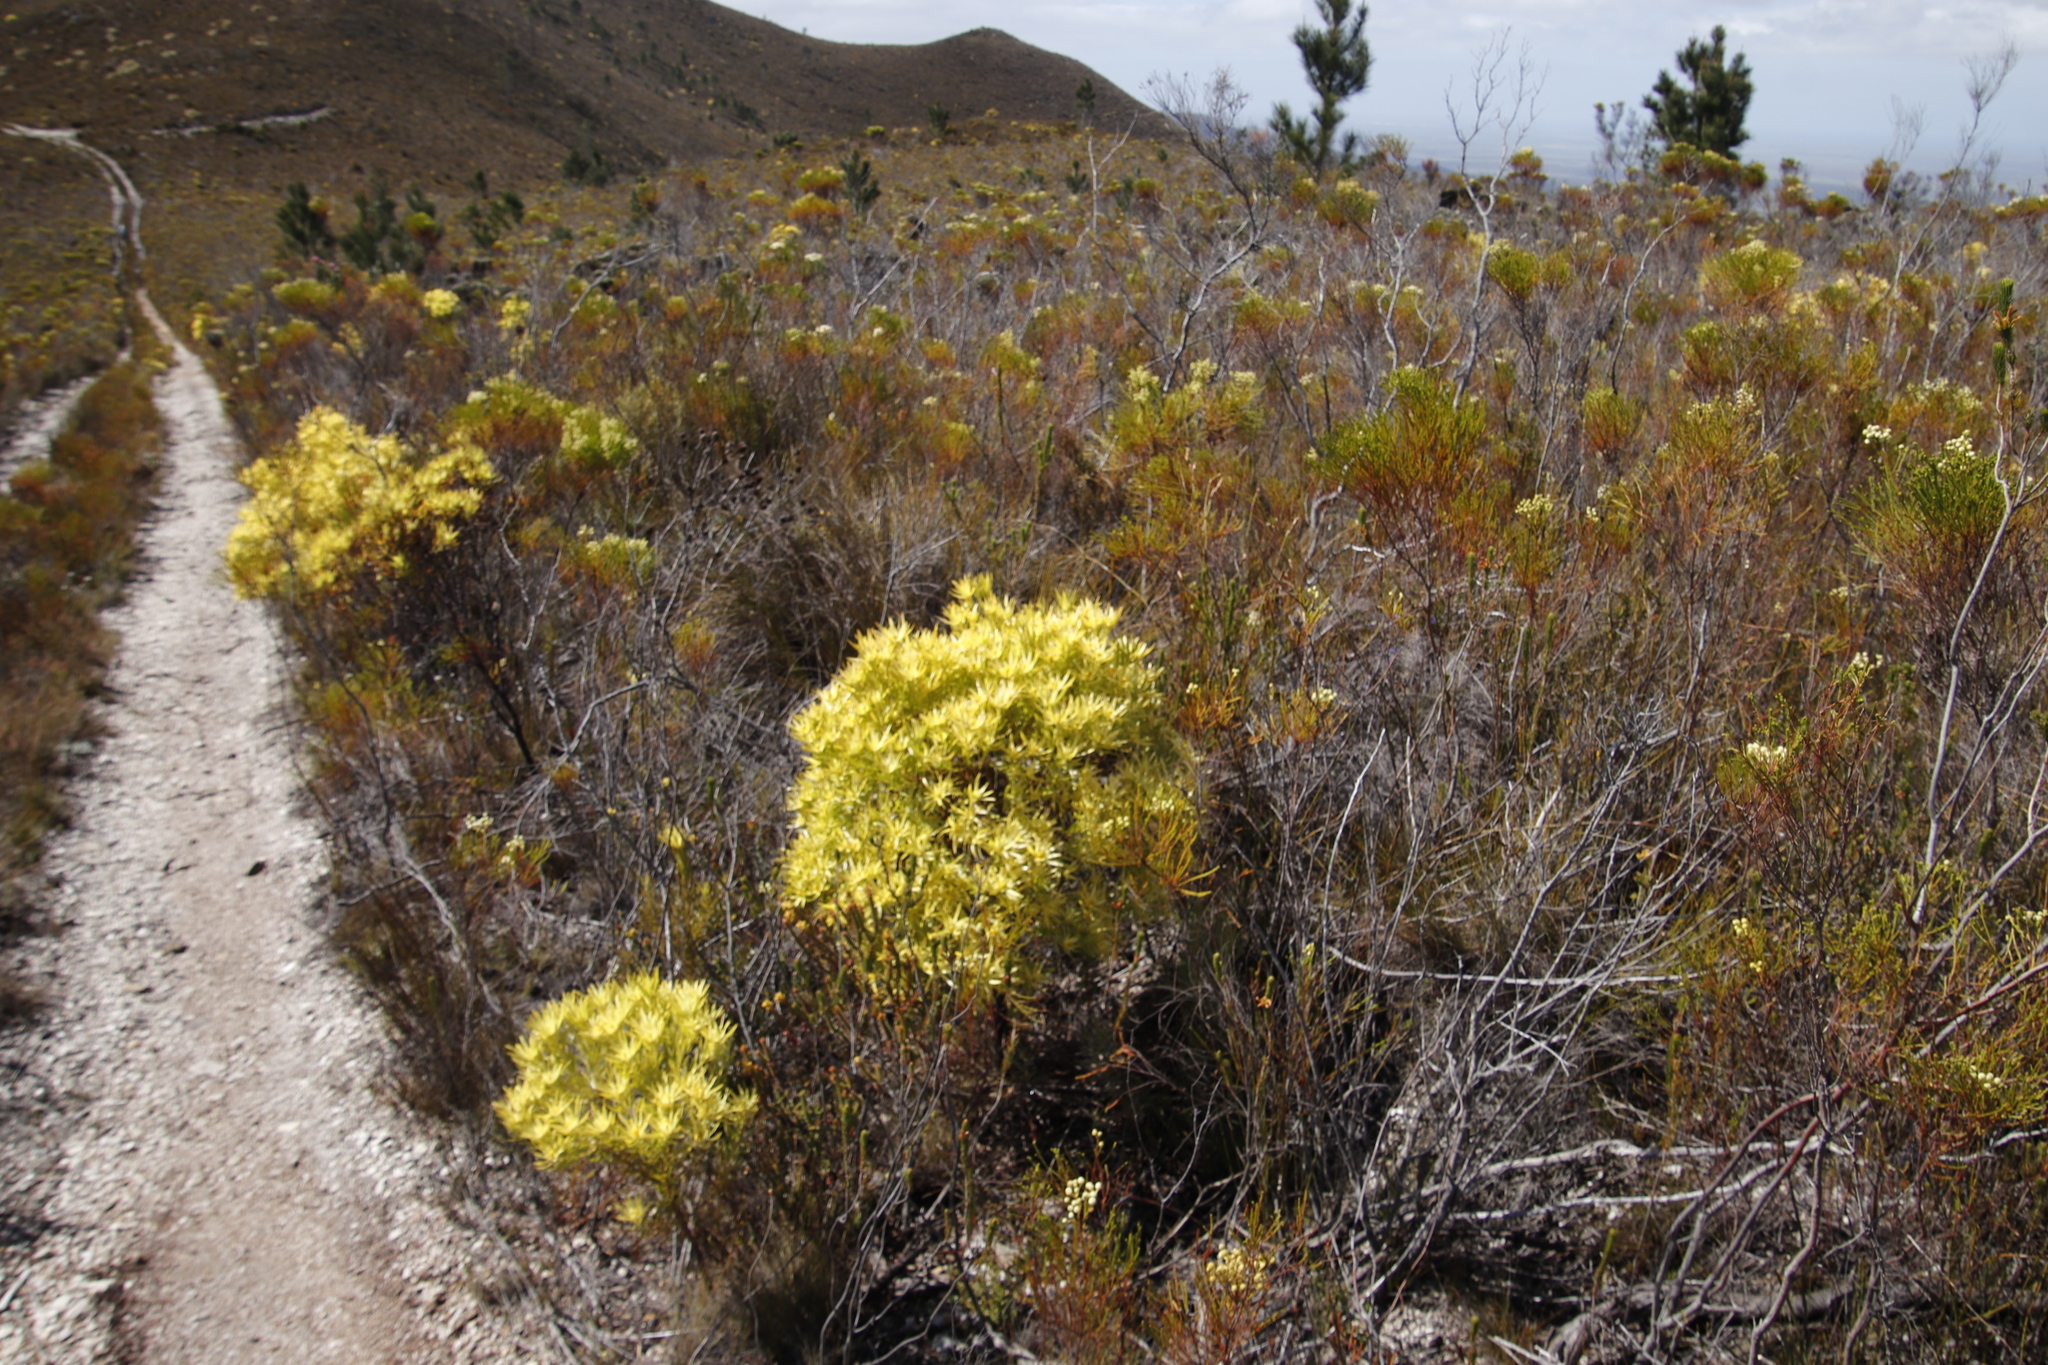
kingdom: Plantae
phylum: Tracheophyta
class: Magnoliopsida
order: Proteales
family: Proteaceae
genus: Leucadendron
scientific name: Leucadendron xanthoconus
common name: Sickle-leaf conebush
